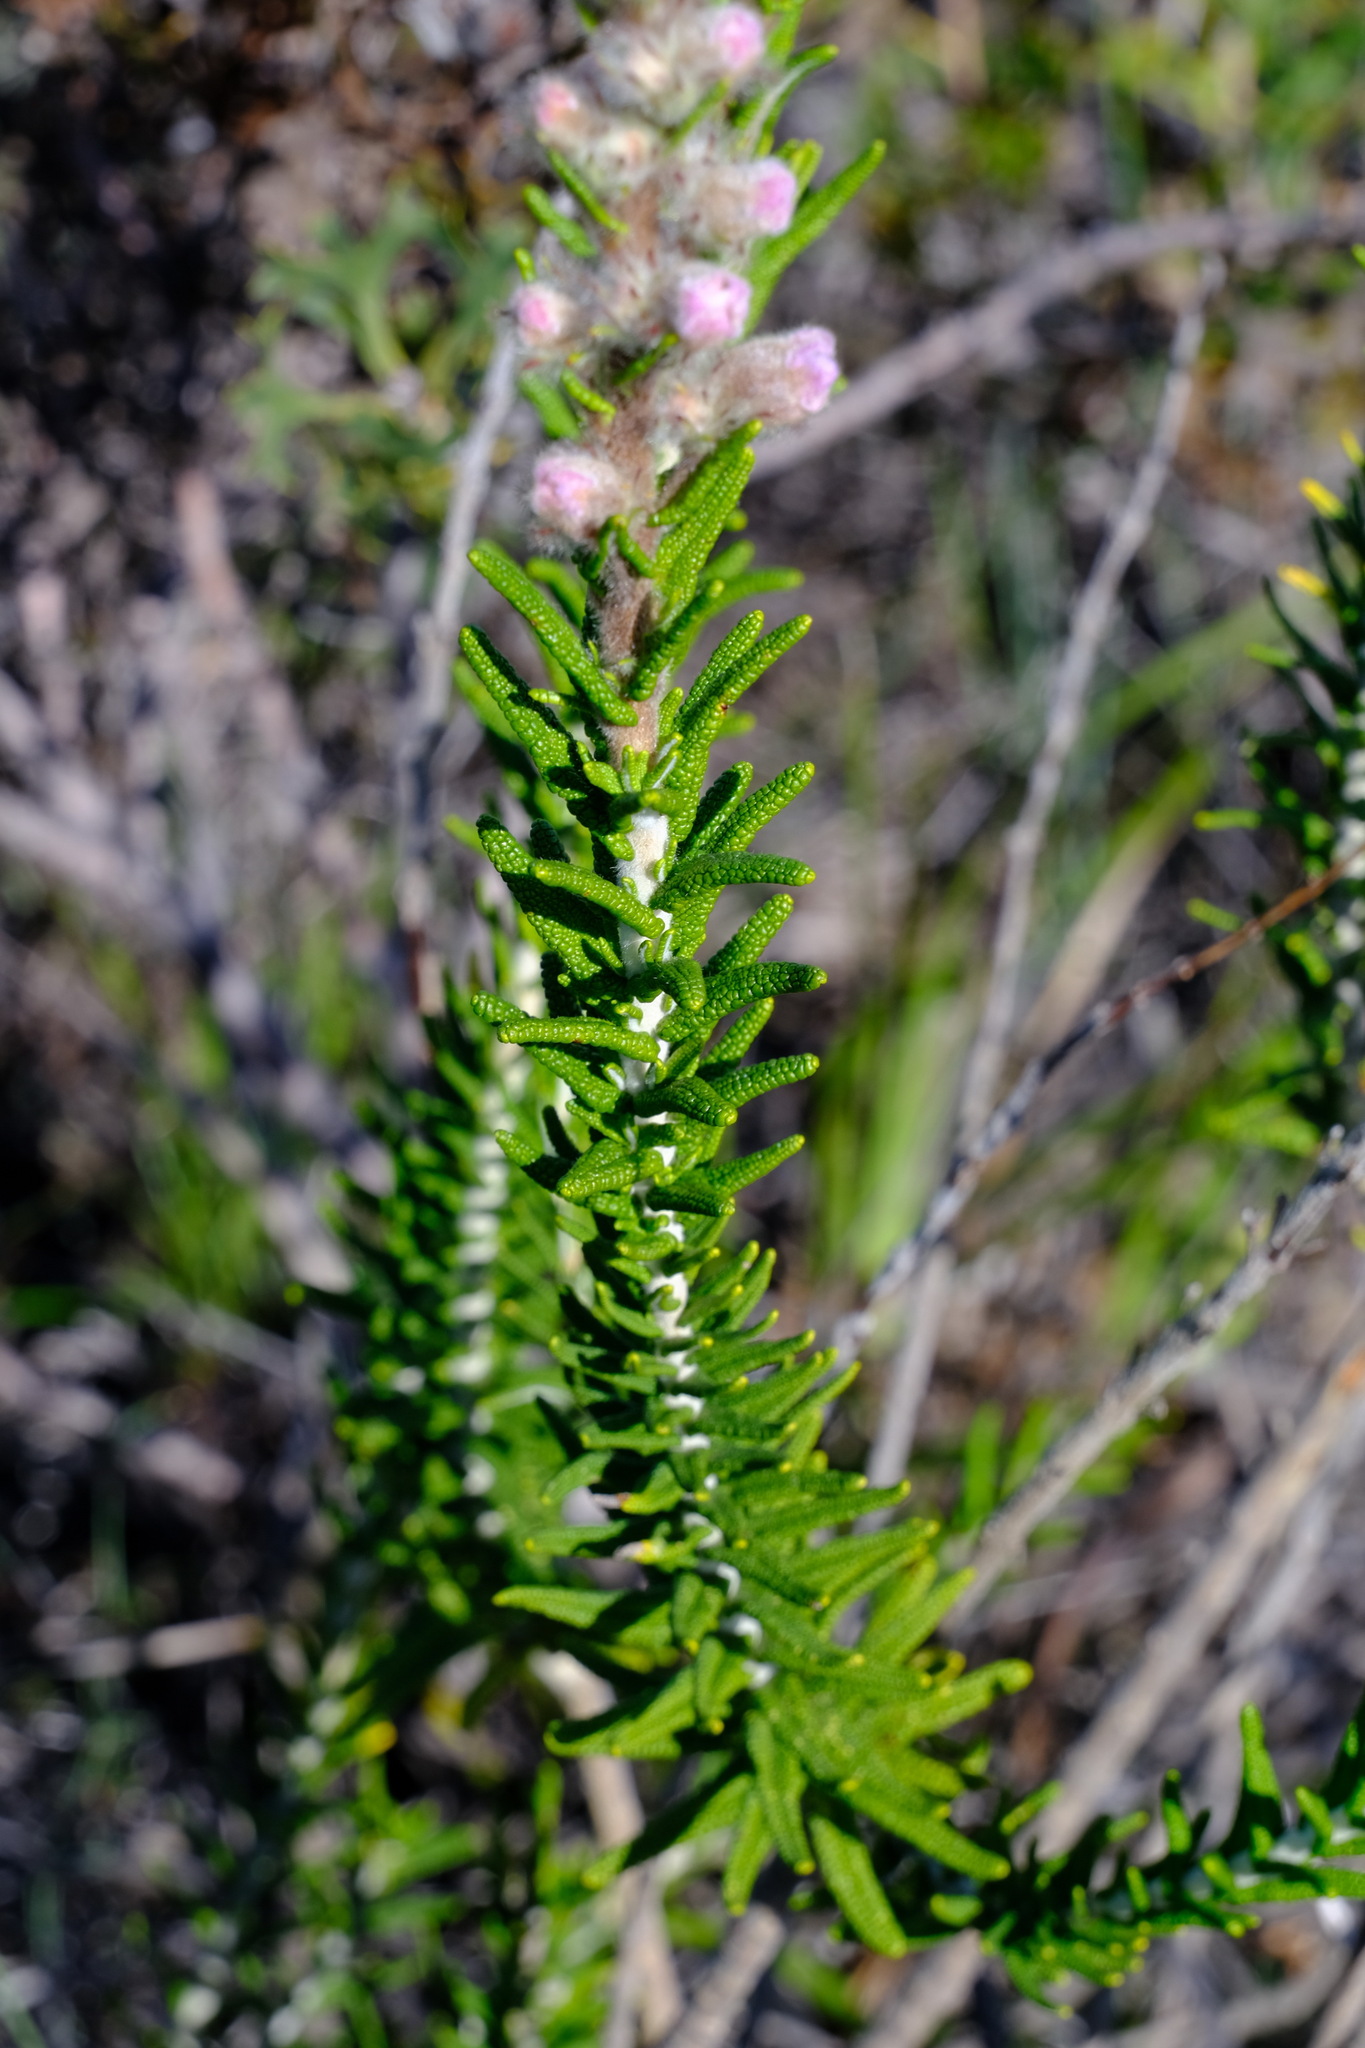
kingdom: Plantae
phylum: Tracheophyta
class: Magnoliopsida
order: Lamiales
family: Lamiaceae
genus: Hemiphora
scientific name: Hemiphora bartlingii
